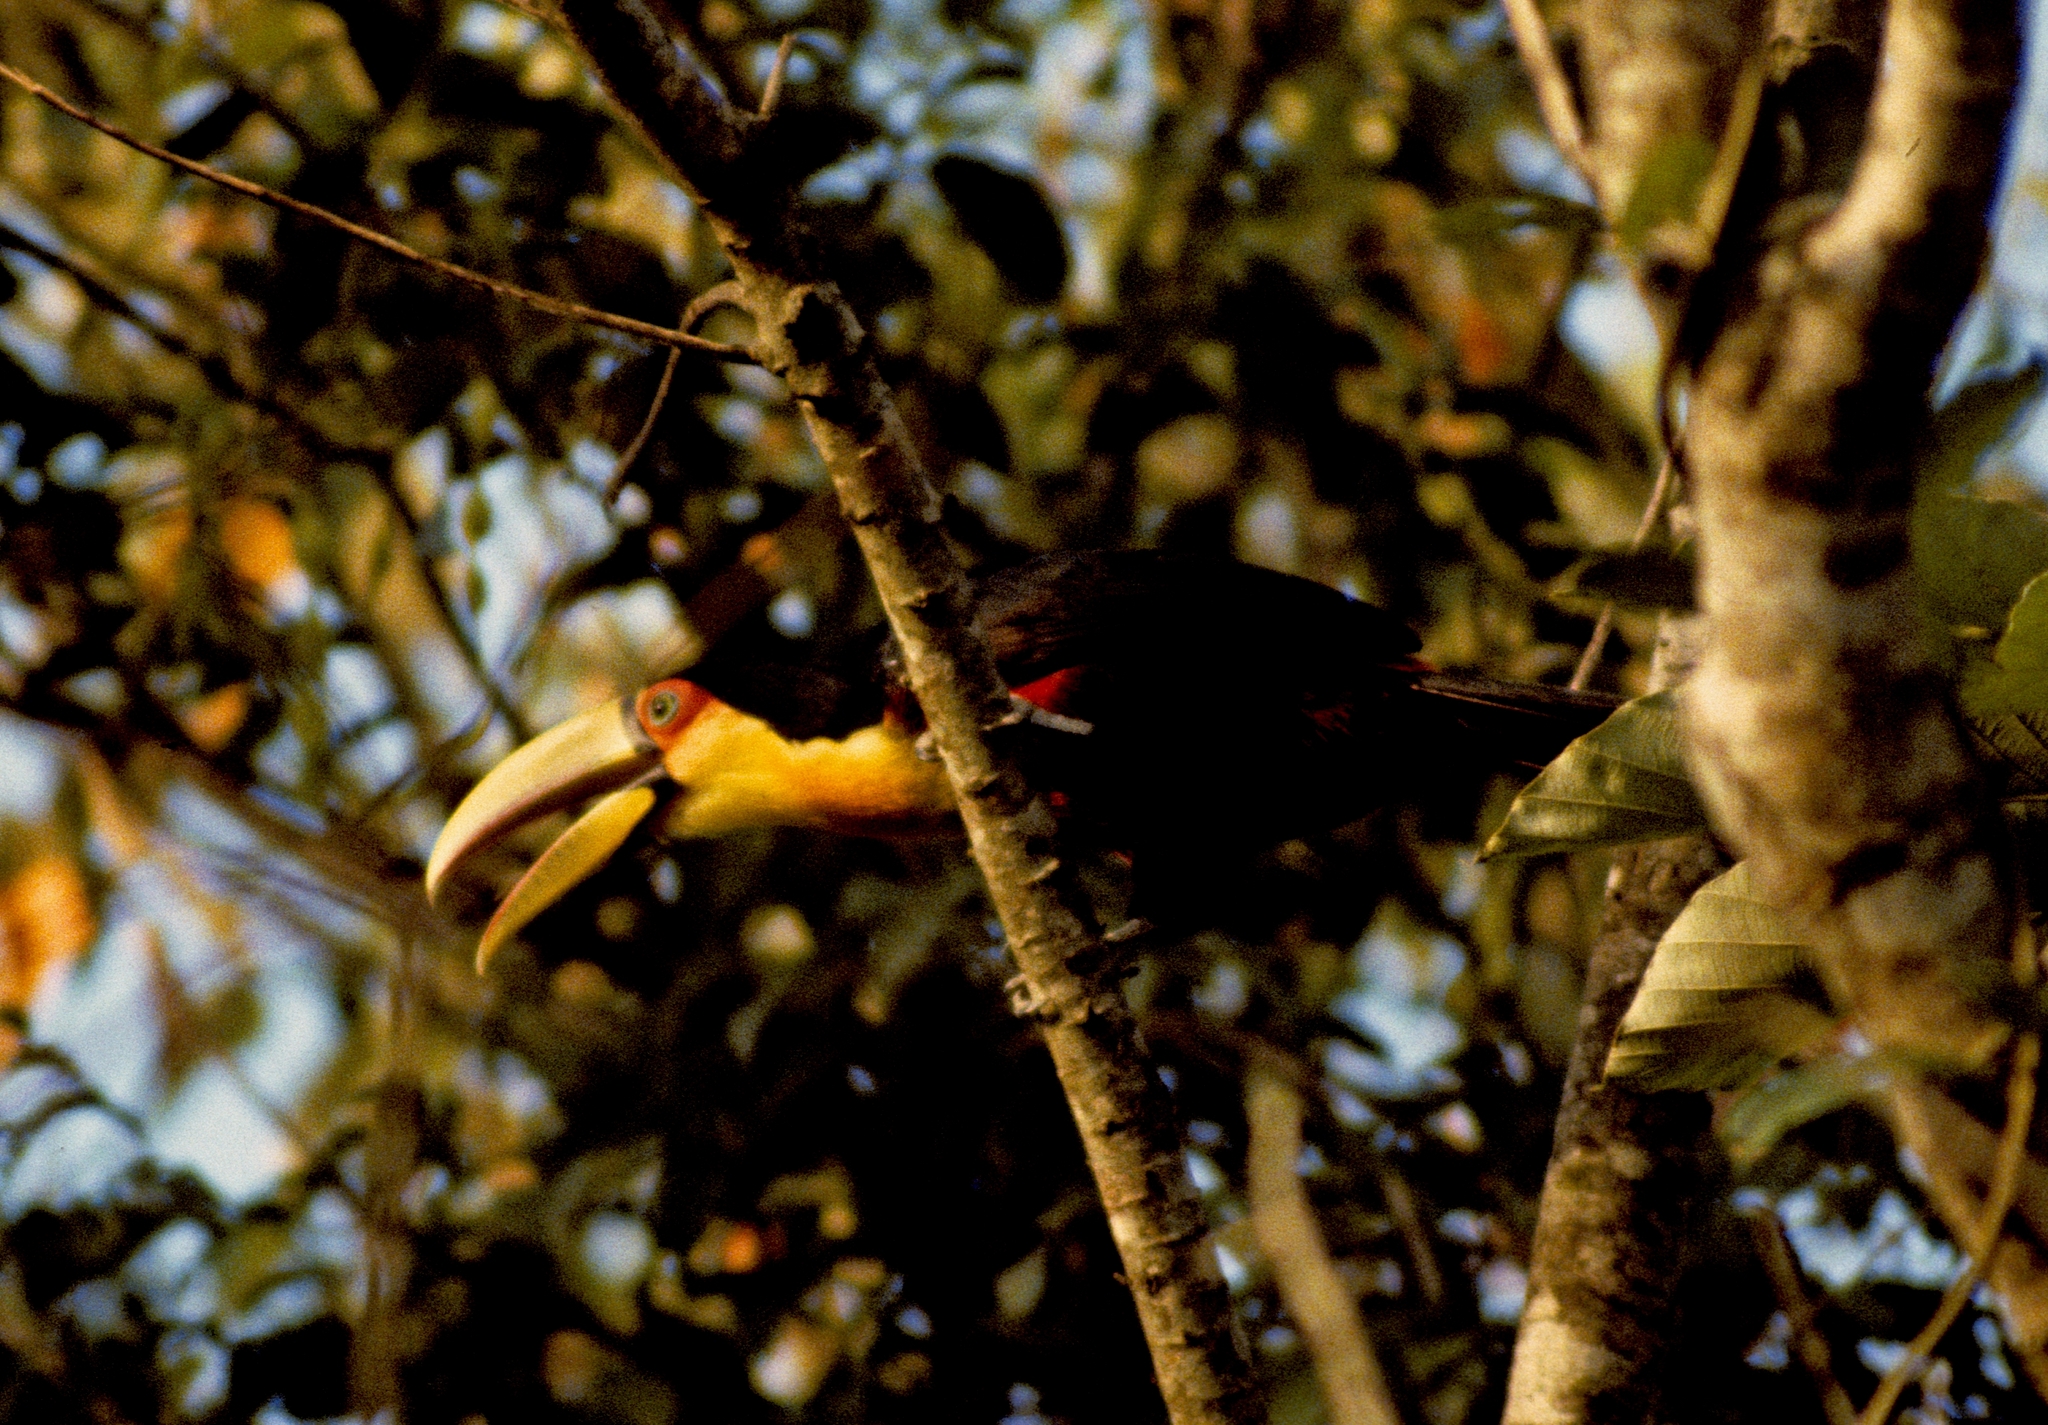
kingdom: Animalia
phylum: Chordata
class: Aves
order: Piciformes
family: Ramphastidae
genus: Ramphastos
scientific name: Ramphastos dicolorus
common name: Green-billed toucan
